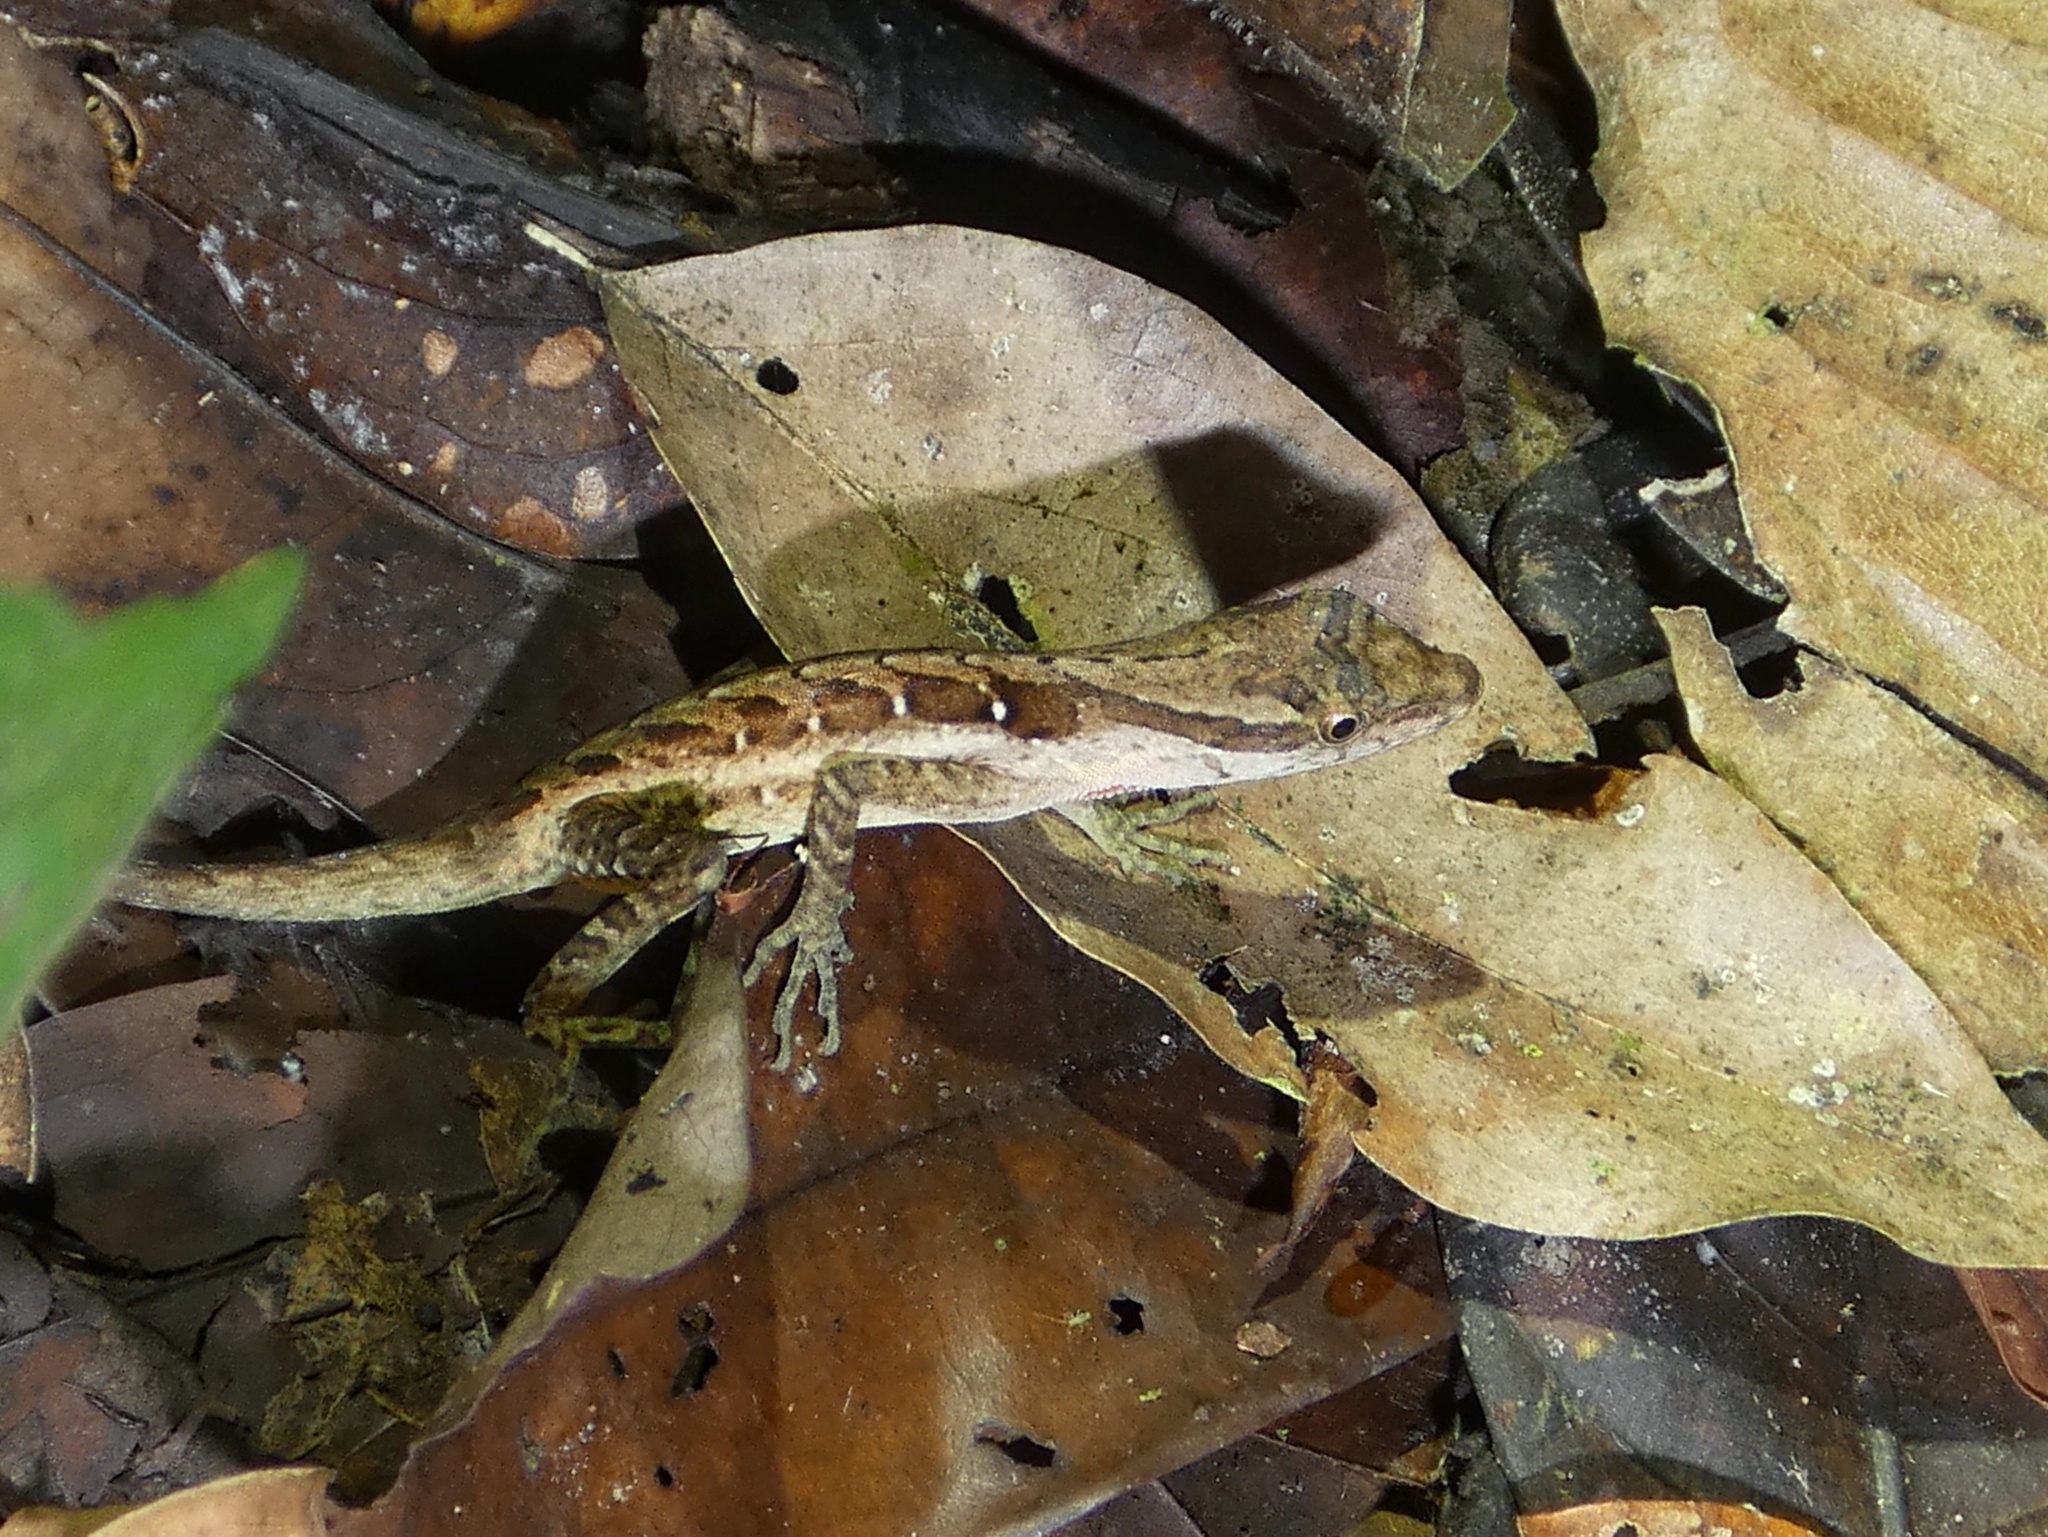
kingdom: Animalia
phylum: Chordata
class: Squamata
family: Dactyloidae
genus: Anolis
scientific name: Anolis tropidogaster
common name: Tropical anole
